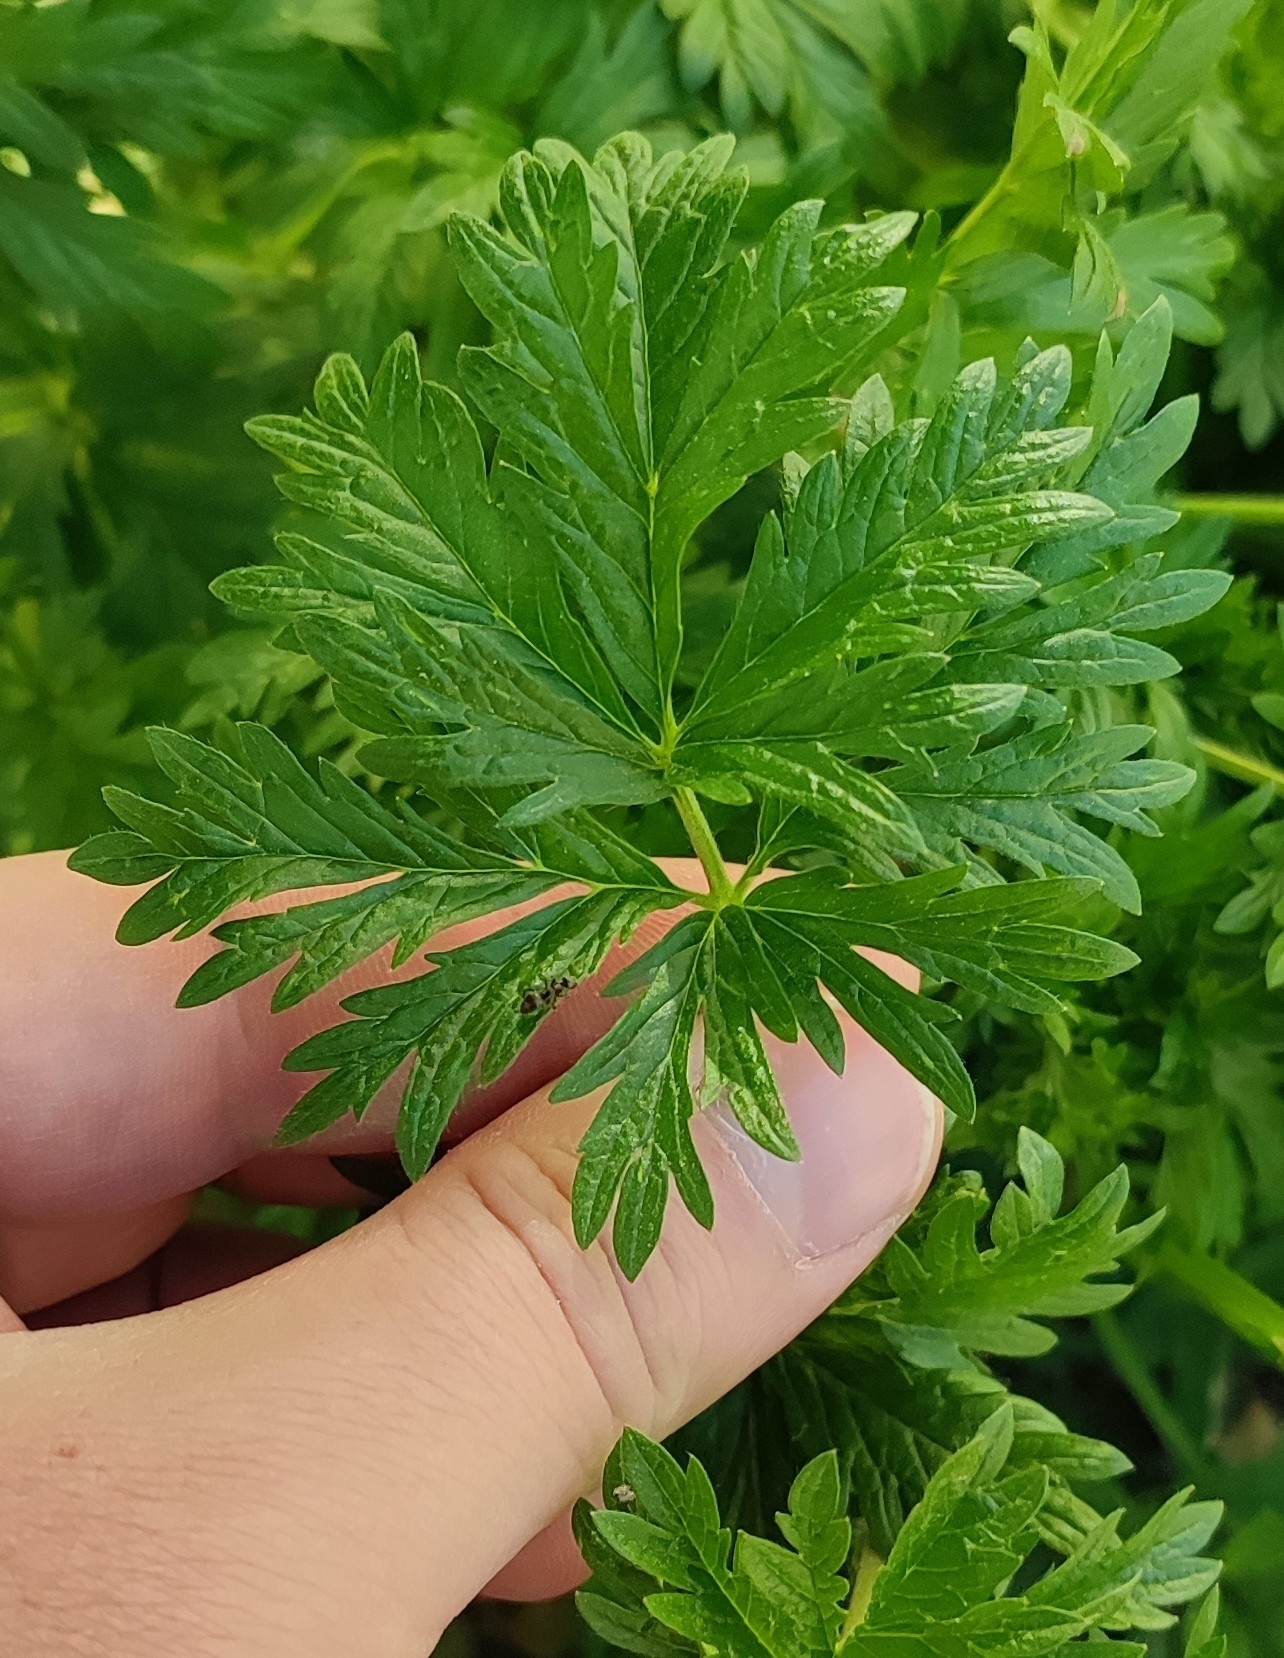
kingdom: Plantae
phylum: Tracheophyta
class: Magnoliopsida
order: Rosales
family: Rosaceae
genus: Potentilla
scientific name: Potentilla tobolensis
